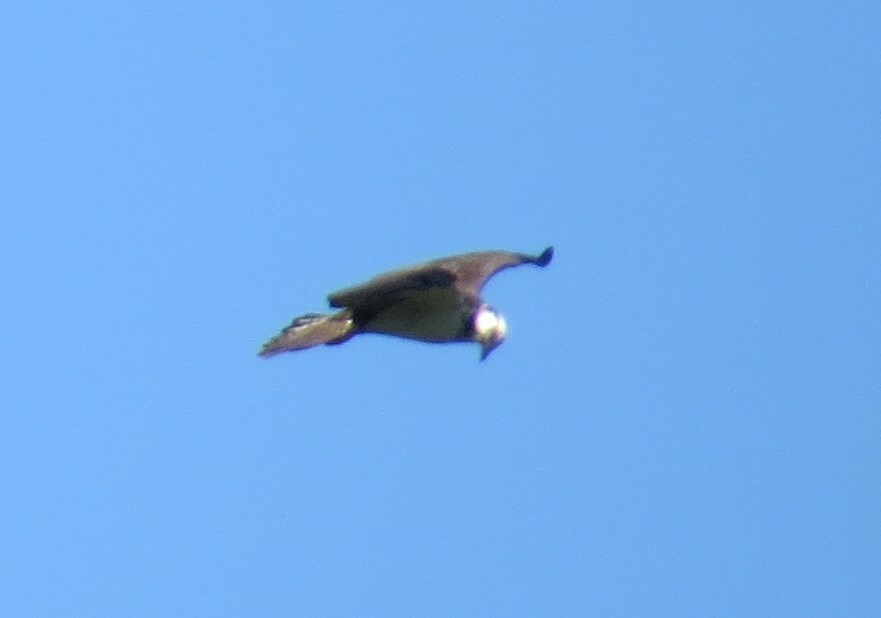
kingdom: Animalia
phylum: Chordata
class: Aves
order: Accipitriformes
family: Pandionidae
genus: Pandion
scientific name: Pandion haliaetus
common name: Osprey
